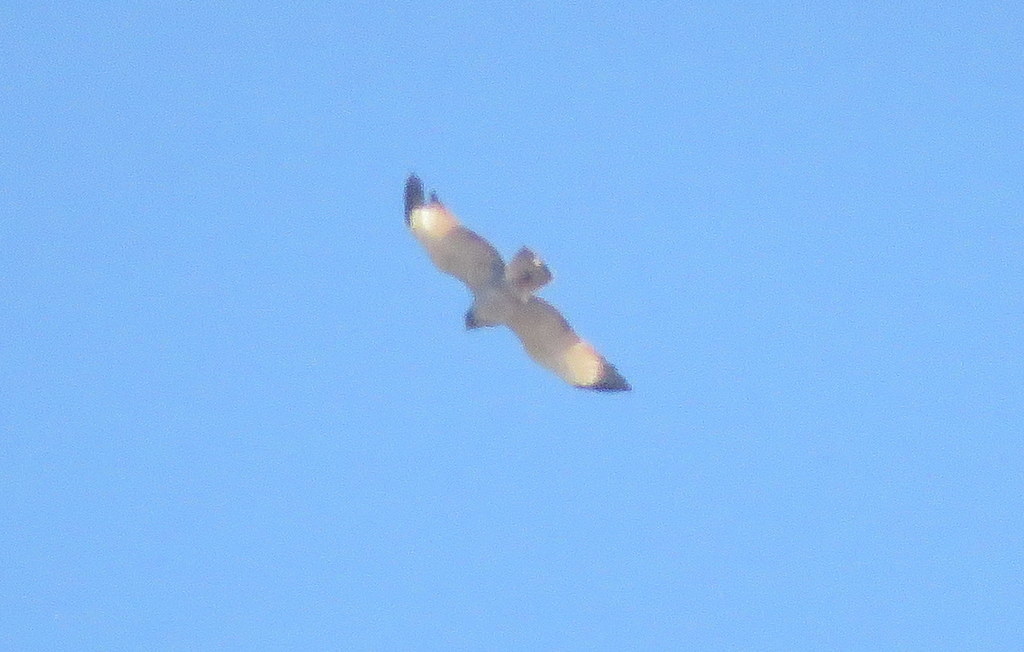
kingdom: Animalia
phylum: Chordata
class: Aves
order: Accipitriformes
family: Accipitridae
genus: Rupornis
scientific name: Rupornis magnirostris
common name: Roadside hawk
